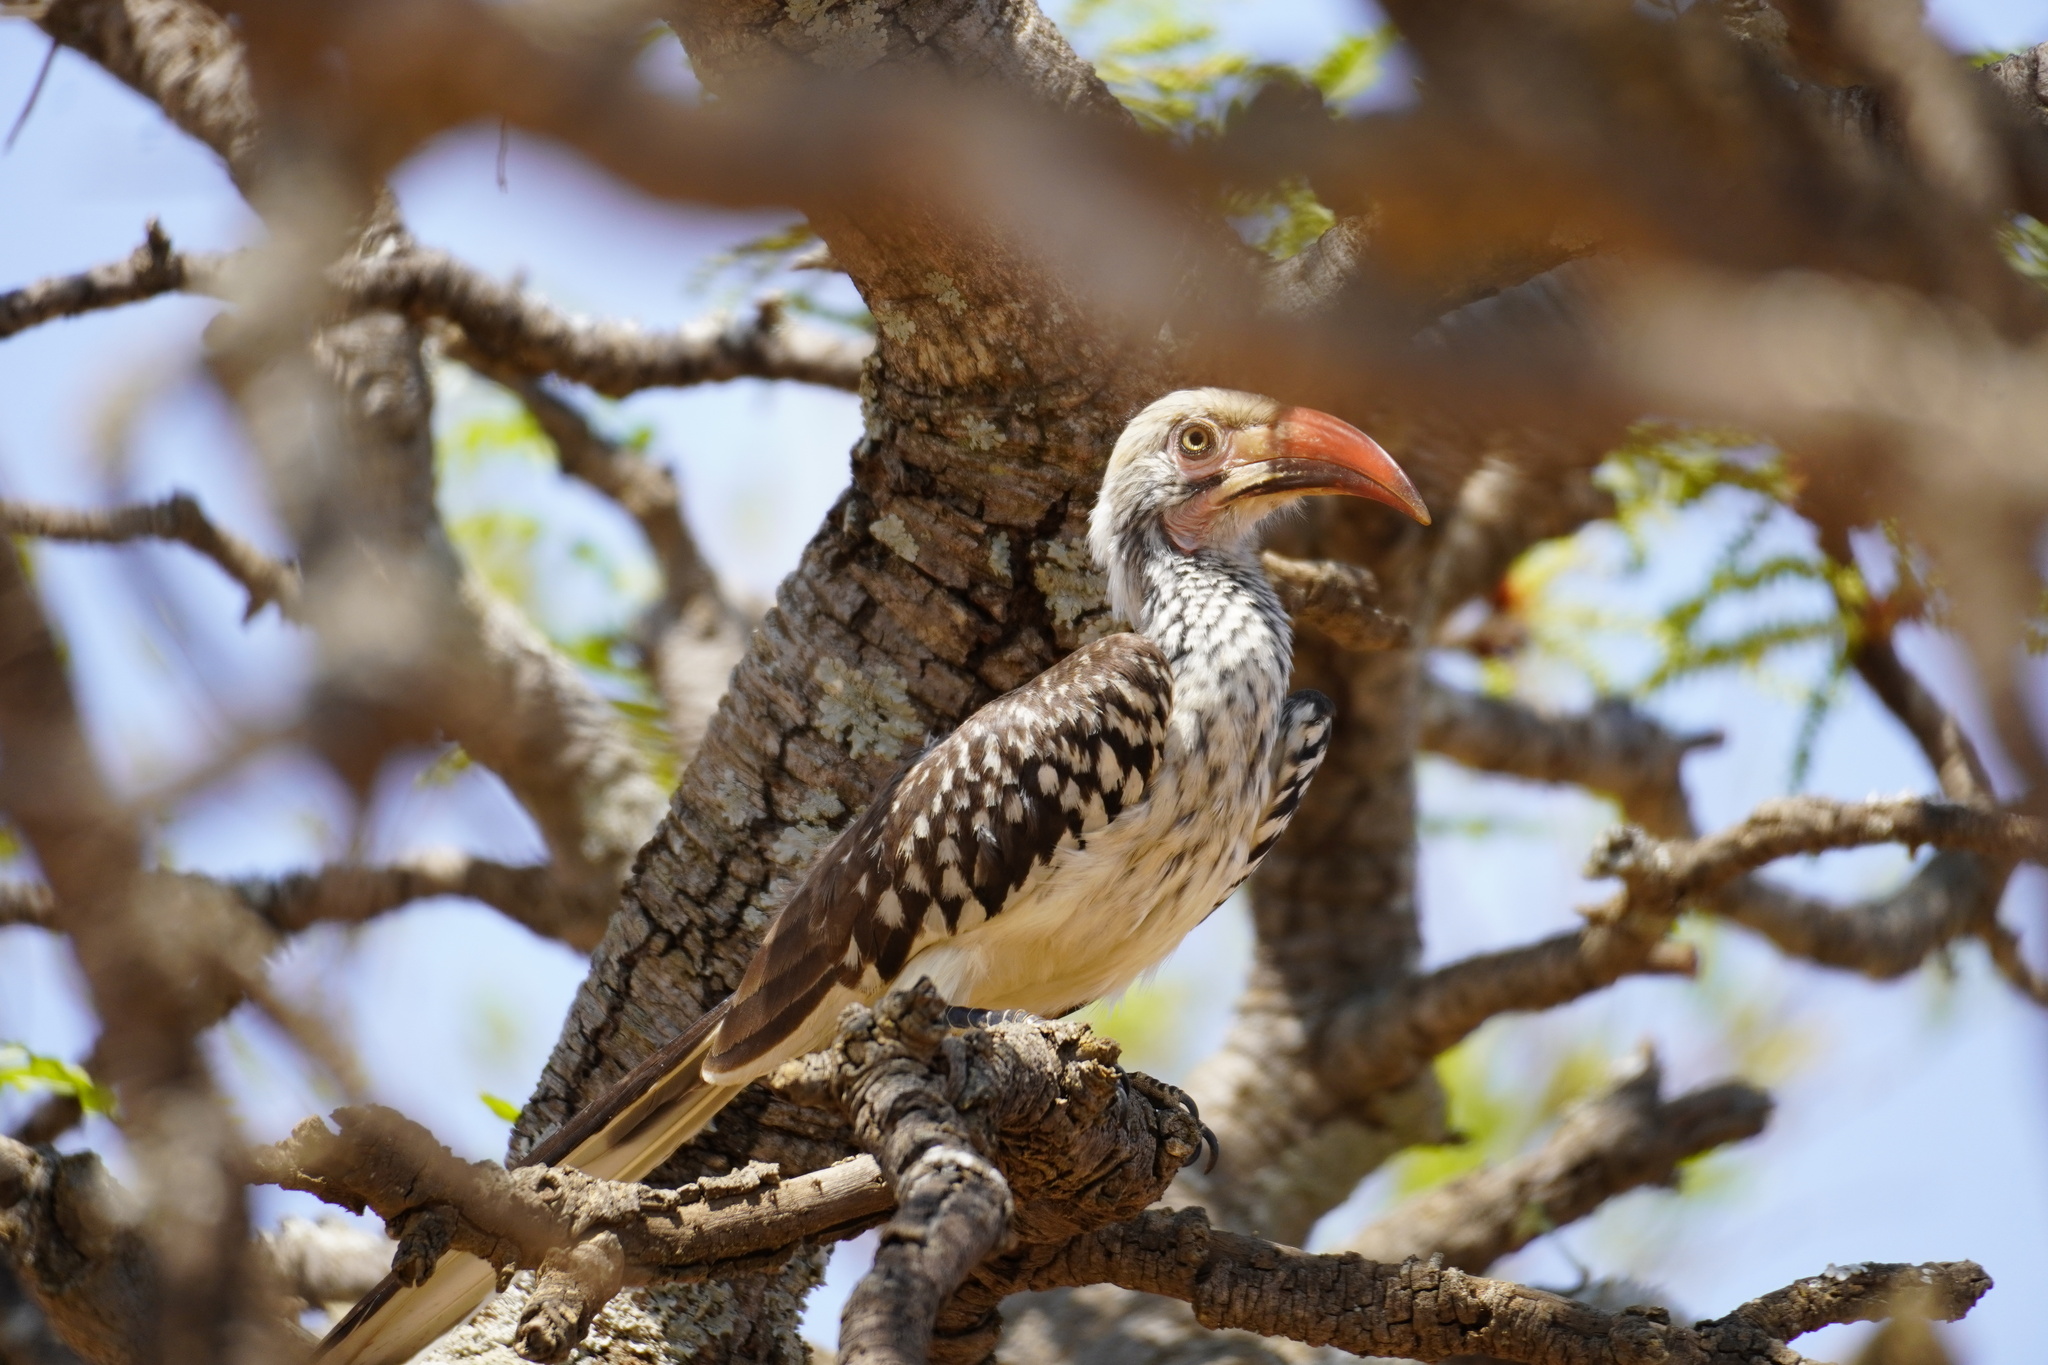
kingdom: Animalia
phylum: Chordata
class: Aves
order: Bucerotiformes
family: Bucerotidae
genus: Tockus
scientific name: Tockus rufirostris
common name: Southern red-billed hornbill
